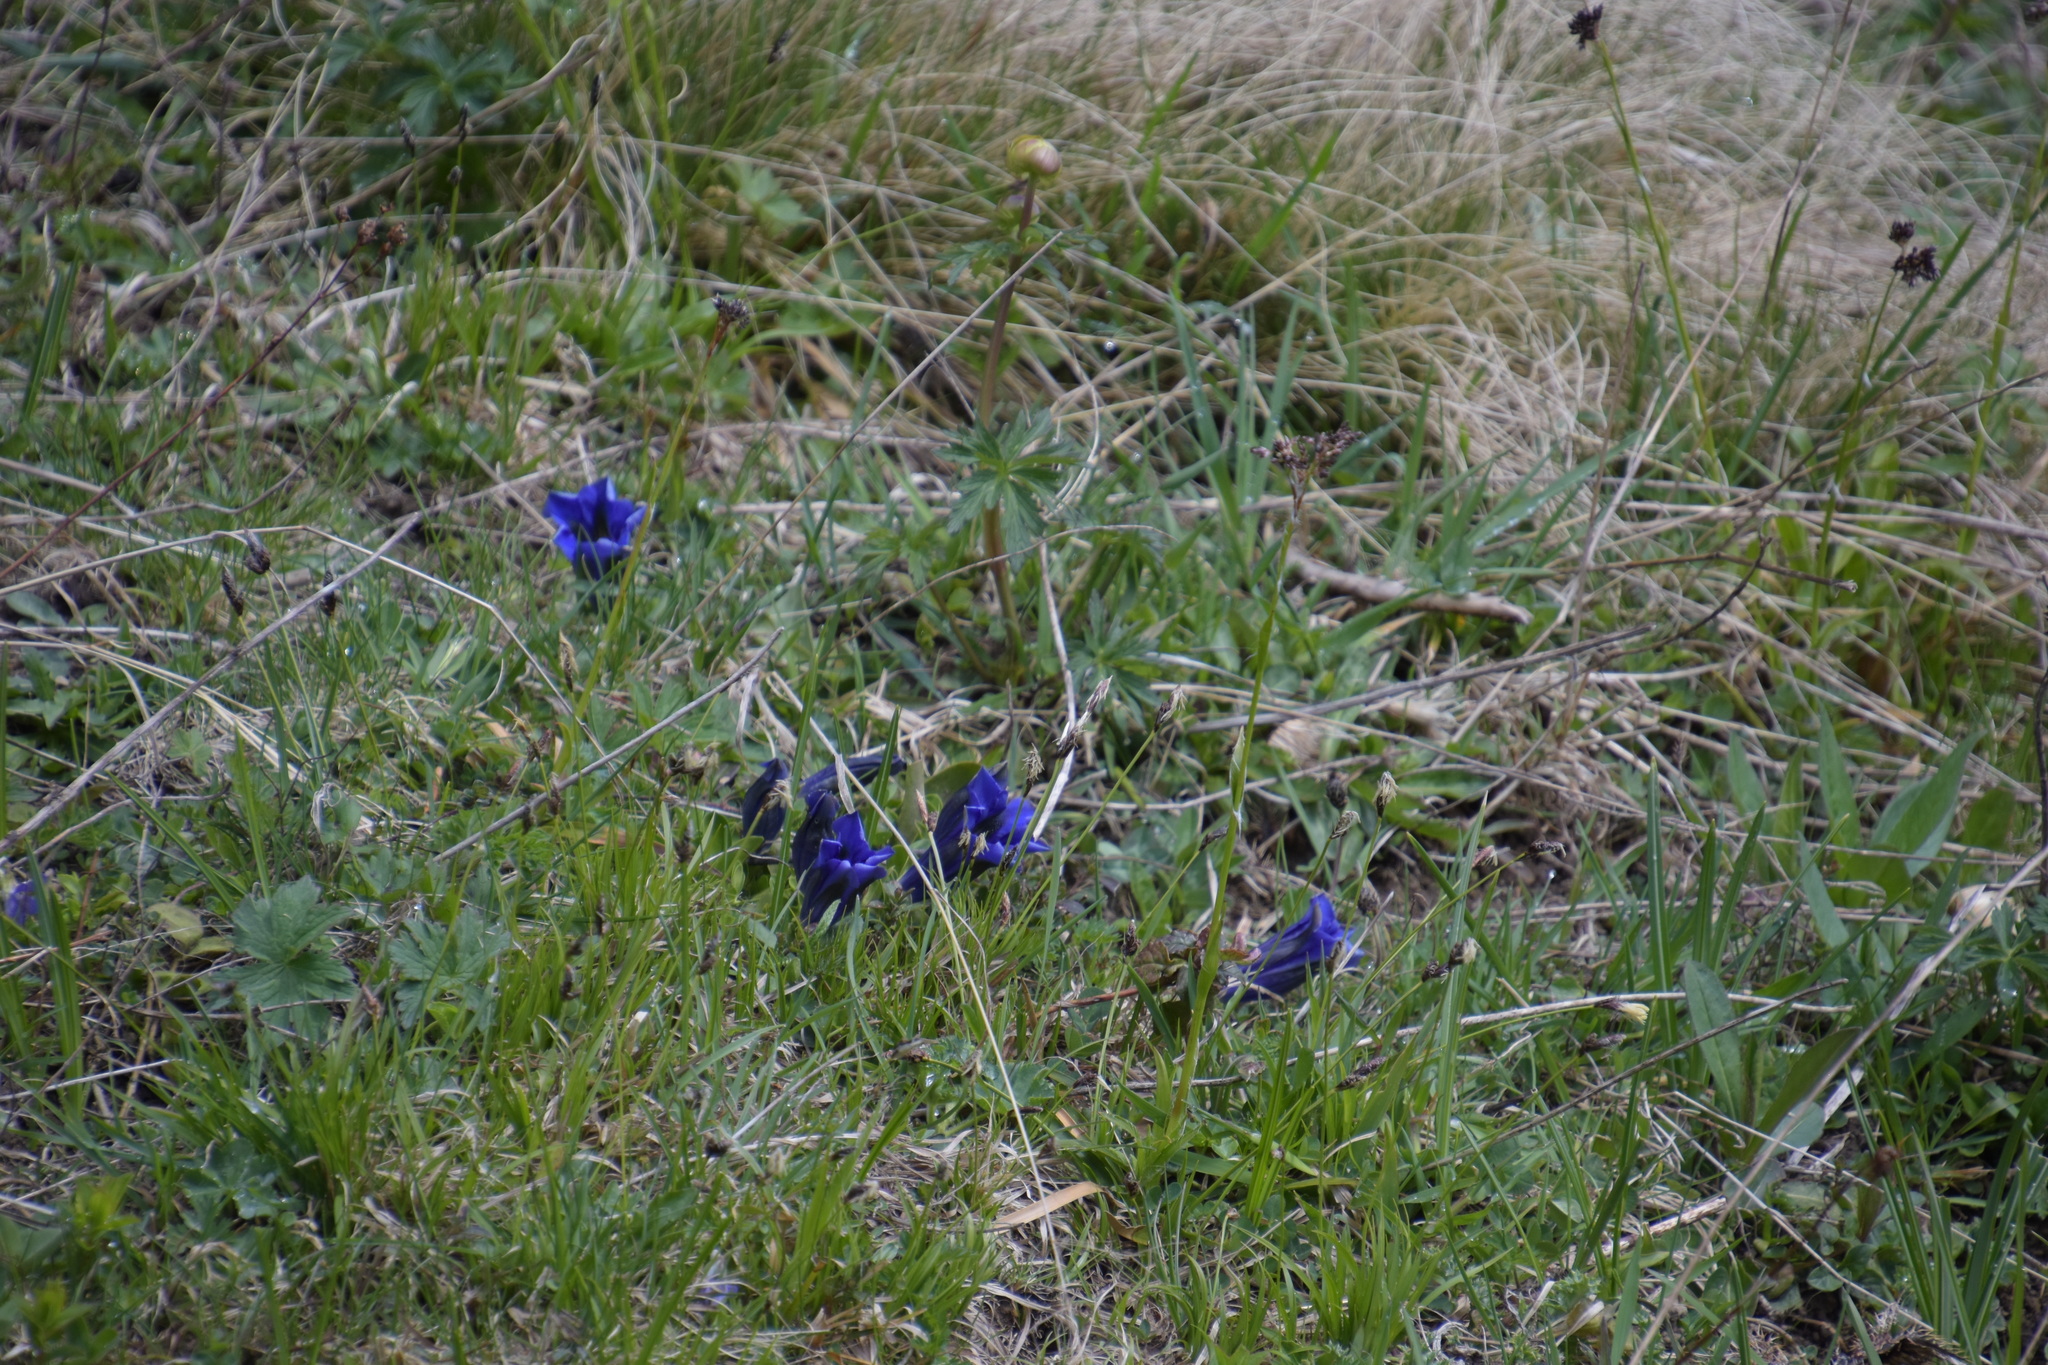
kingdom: Plantae
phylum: Tracheophyta
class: Magnoliopsida
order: Gentianales
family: Gentianaceae
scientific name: Gentianaceae
